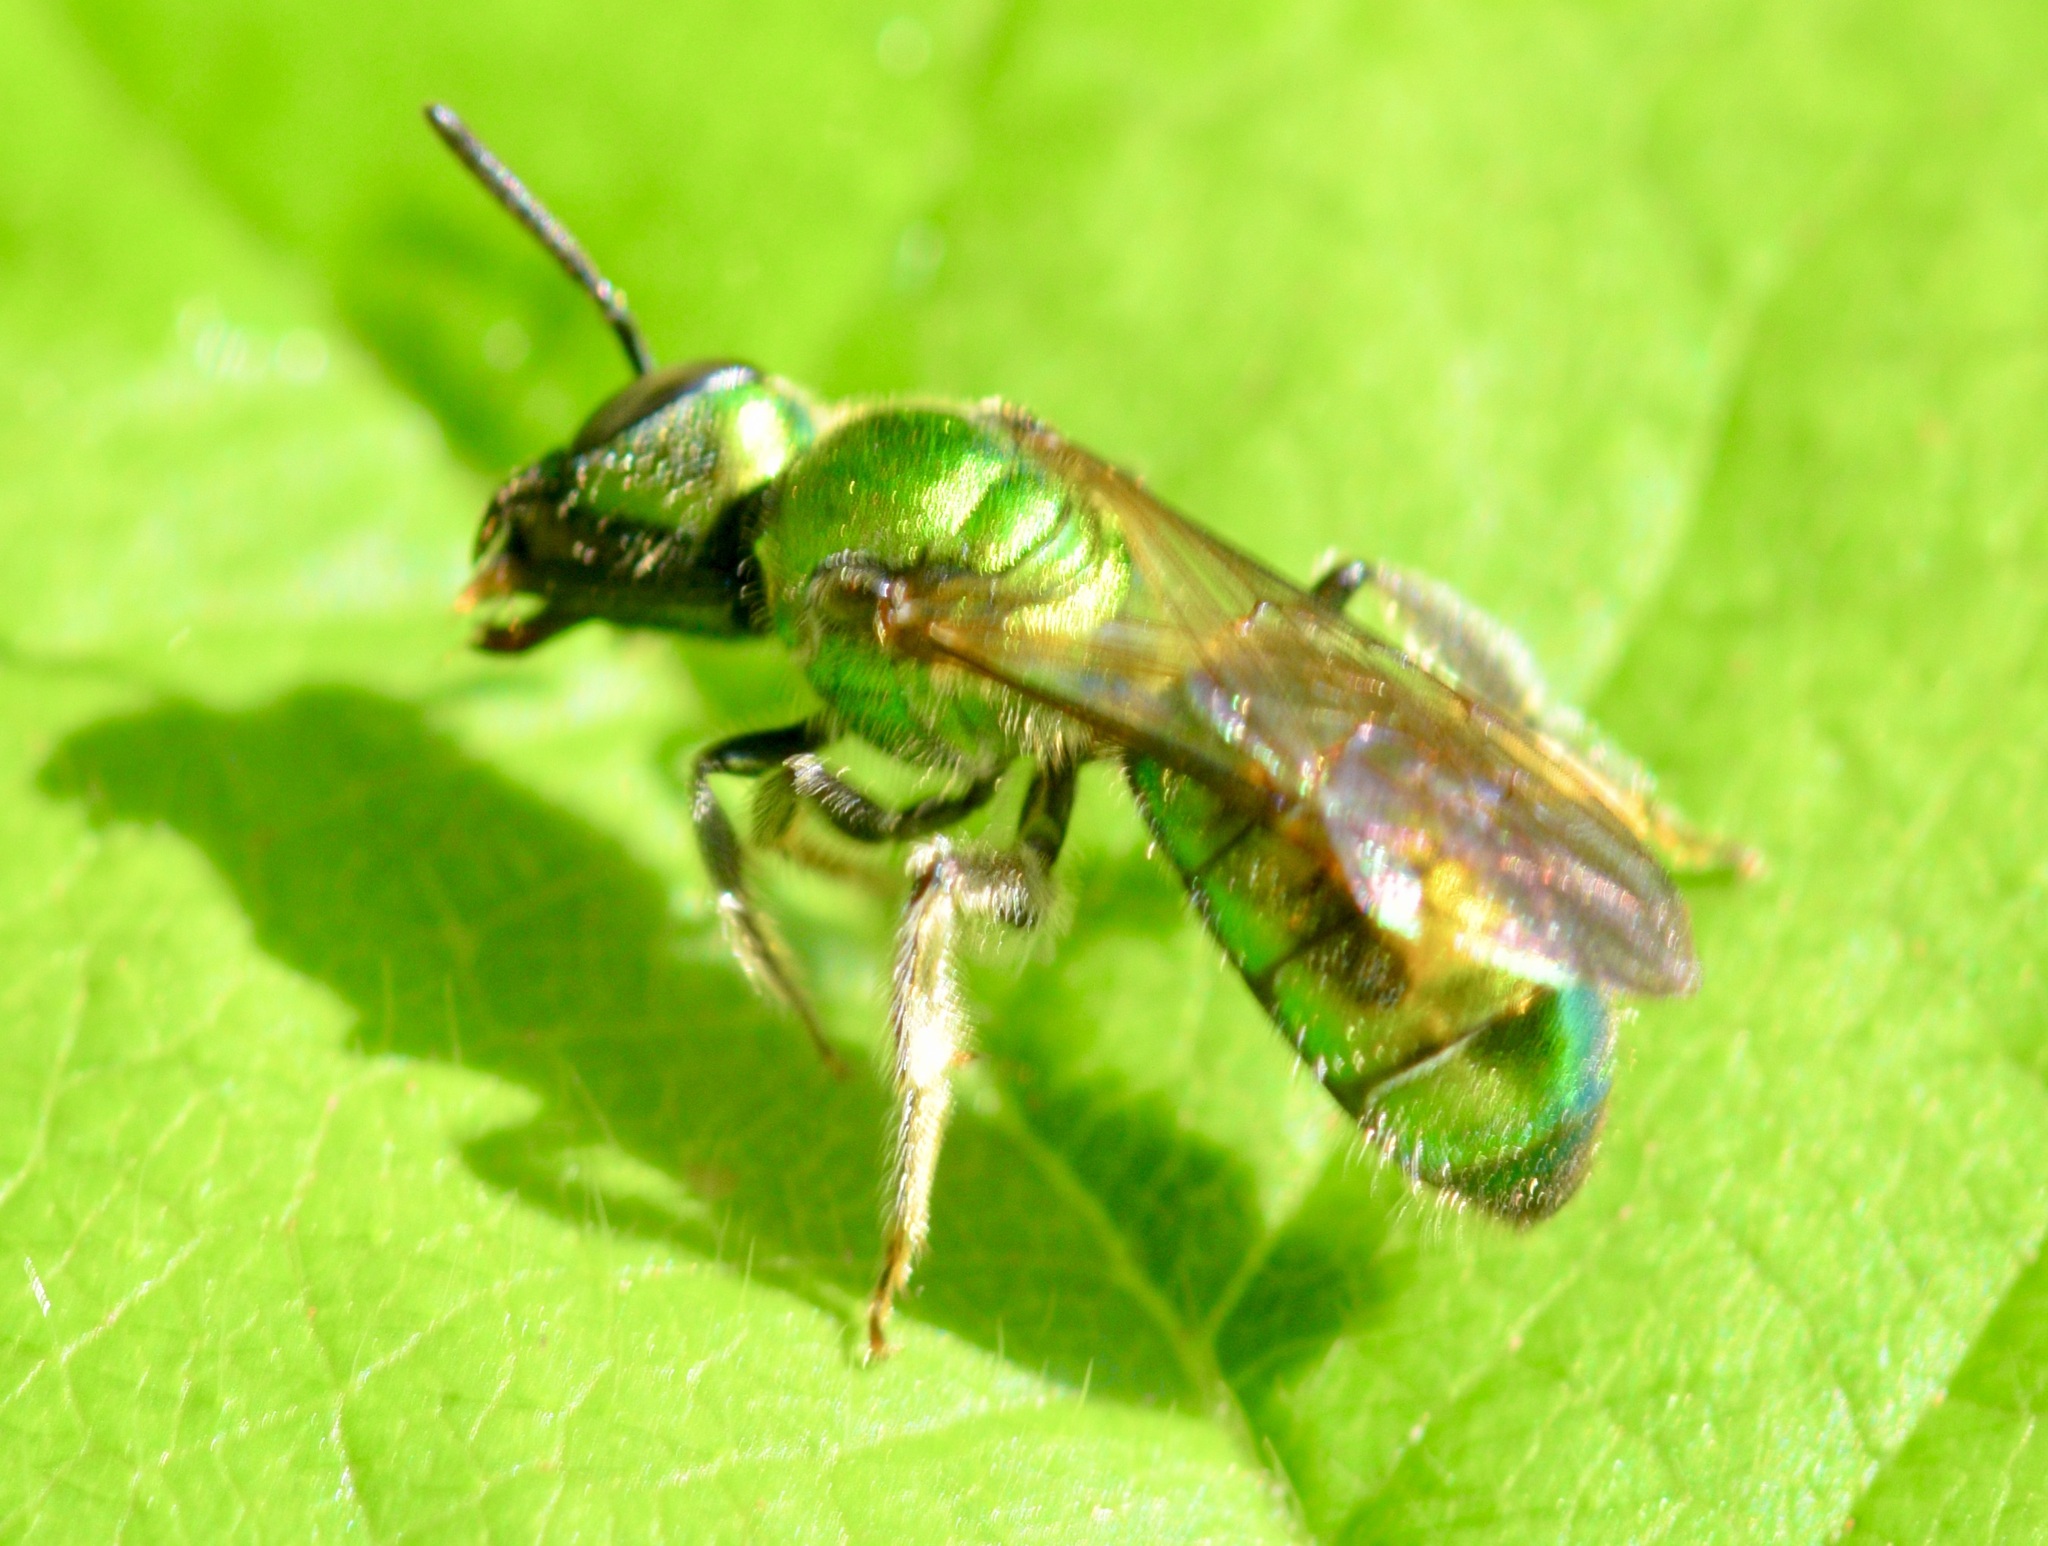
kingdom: Animalia
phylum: Arthropoda
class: Insecta
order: Hymenoptera
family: Halictidae
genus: Augochlora
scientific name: Augochlora pura
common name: Pure green sweat bee
